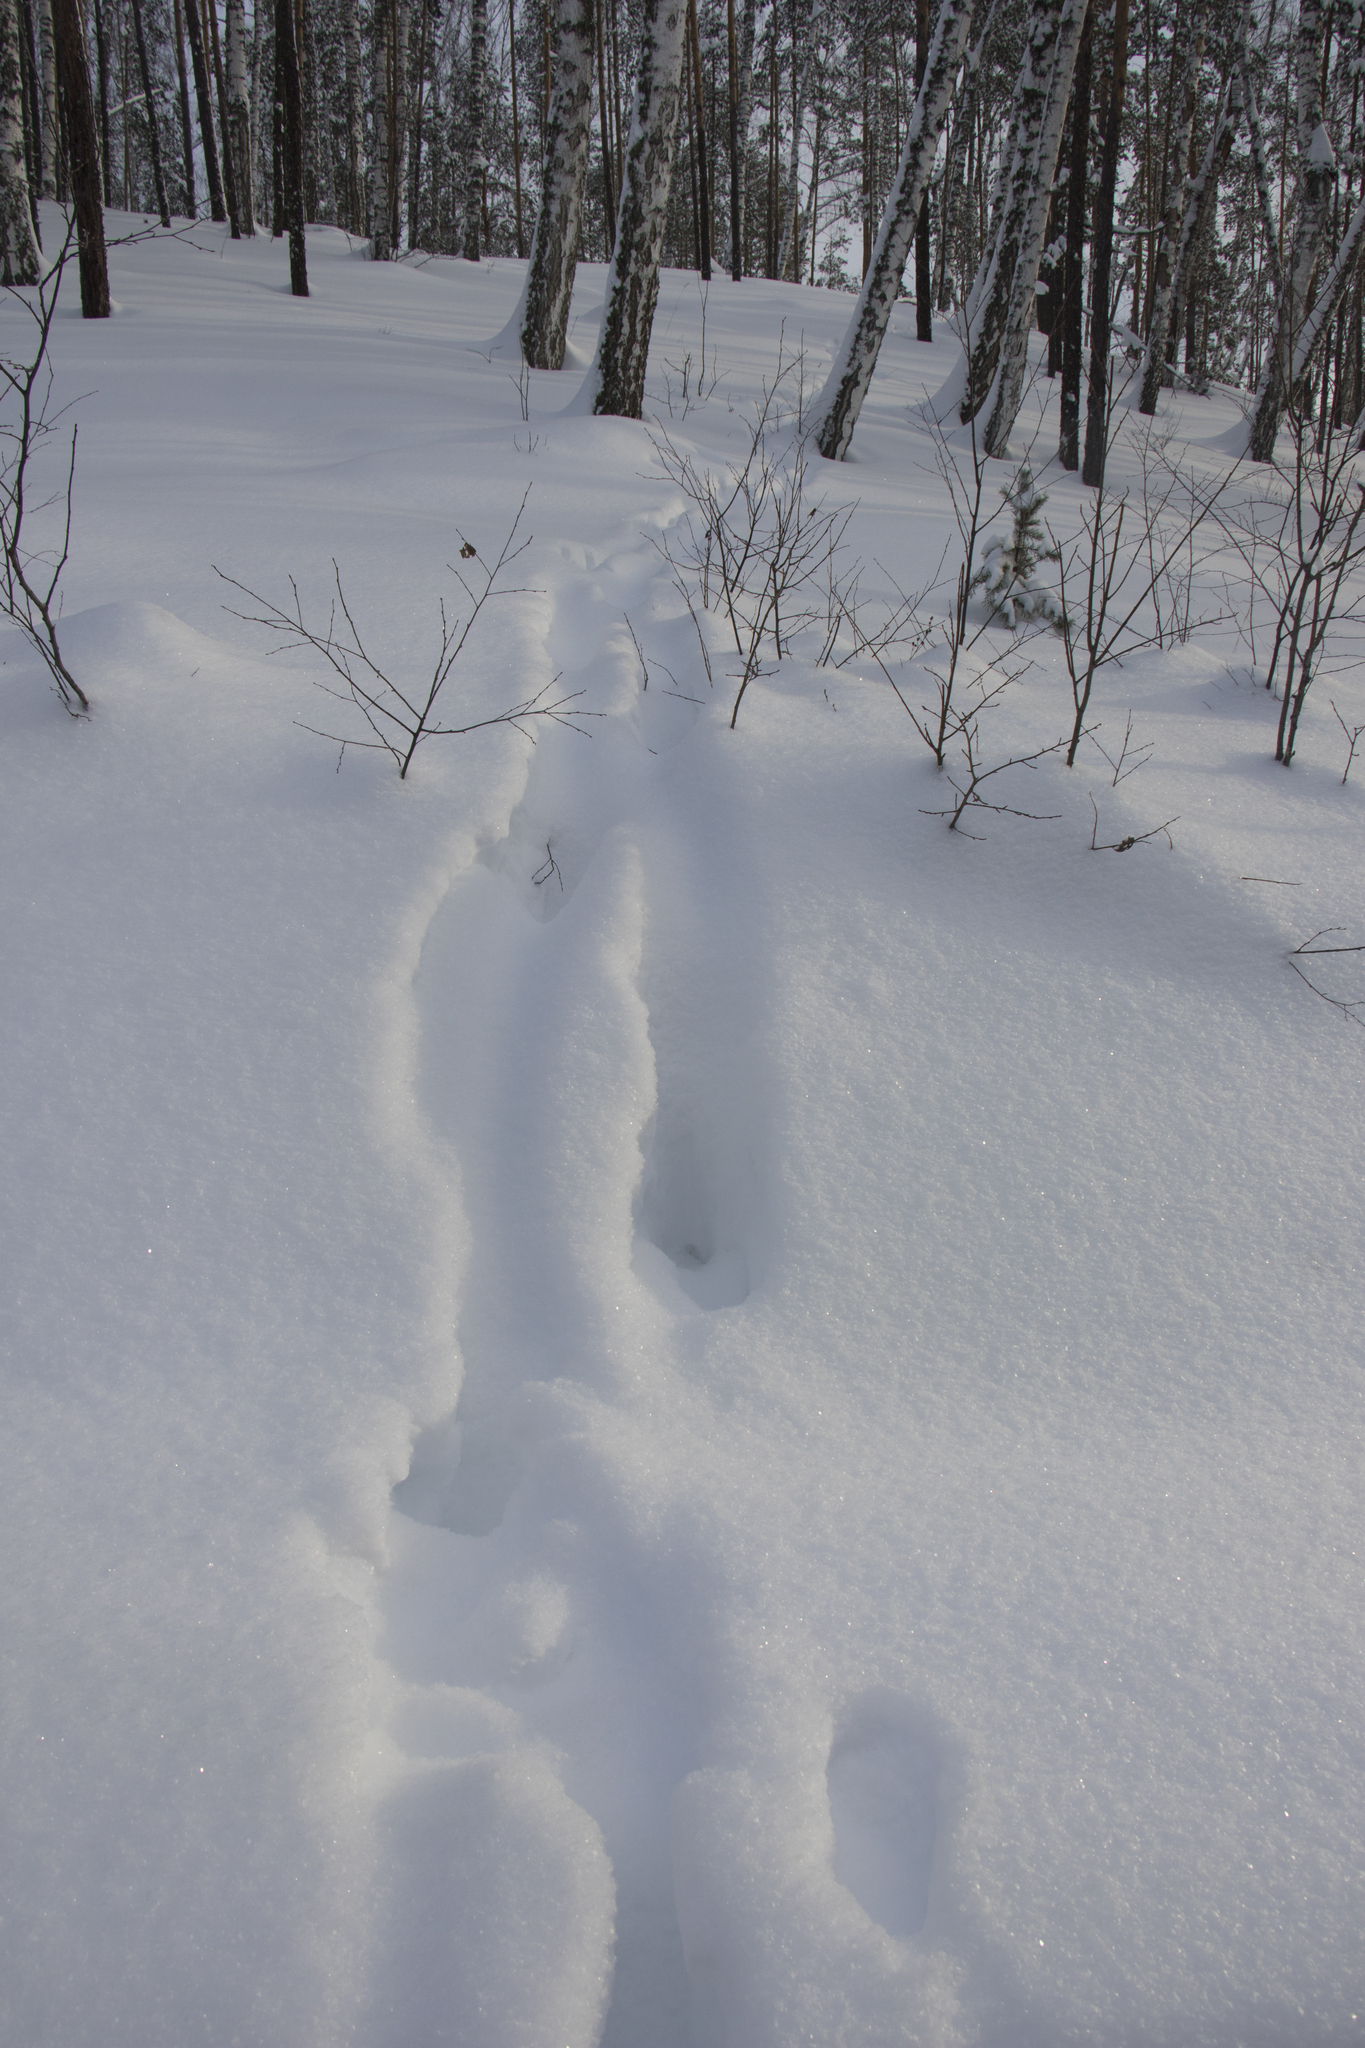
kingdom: Animalia
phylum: Chordata
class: Mammalia
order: Artiodactyla
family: Cervidae
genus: Alces
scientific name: Alces alces
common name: Moose
